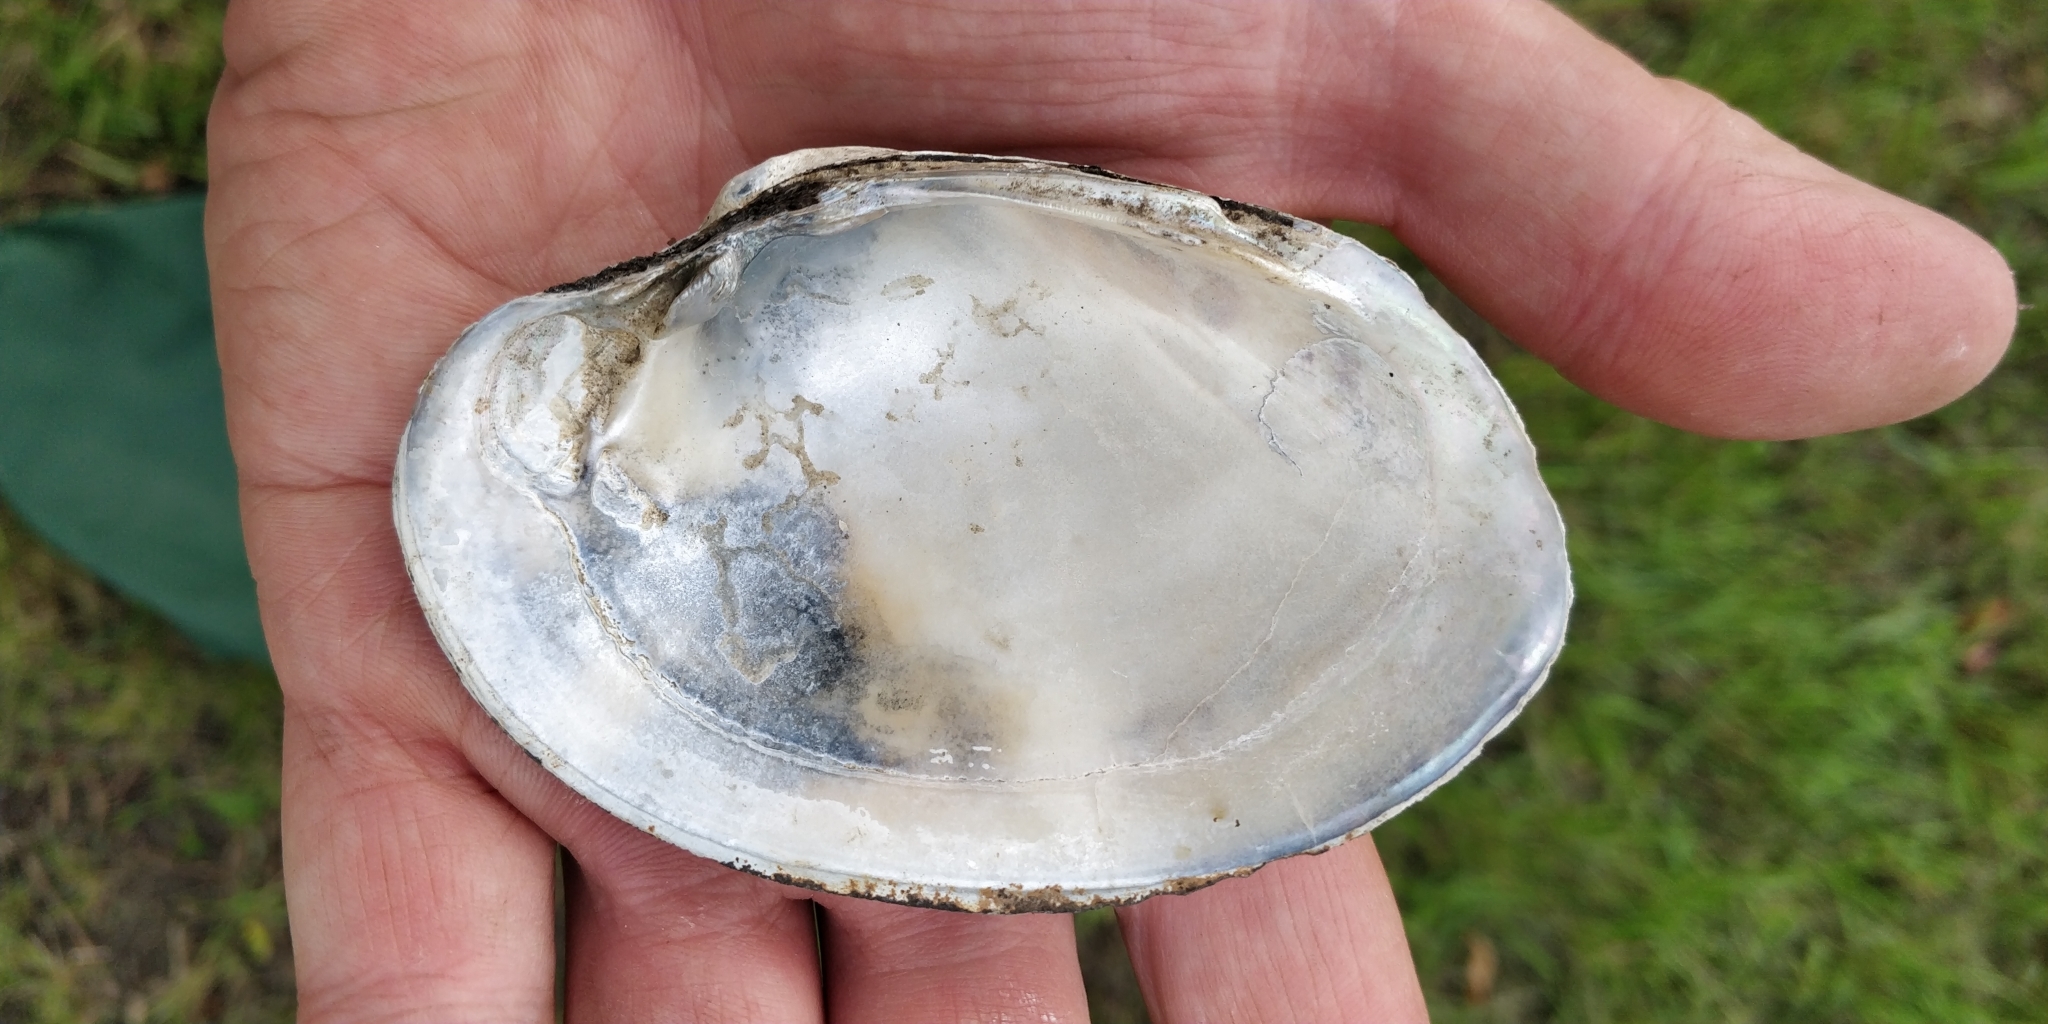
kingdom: Animalia
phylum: Mollusca
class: Bivalvia
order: Unionida
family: Unionidae
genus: Lampsilis
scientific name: Lampsilis cardium
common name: Plain pocketbook
